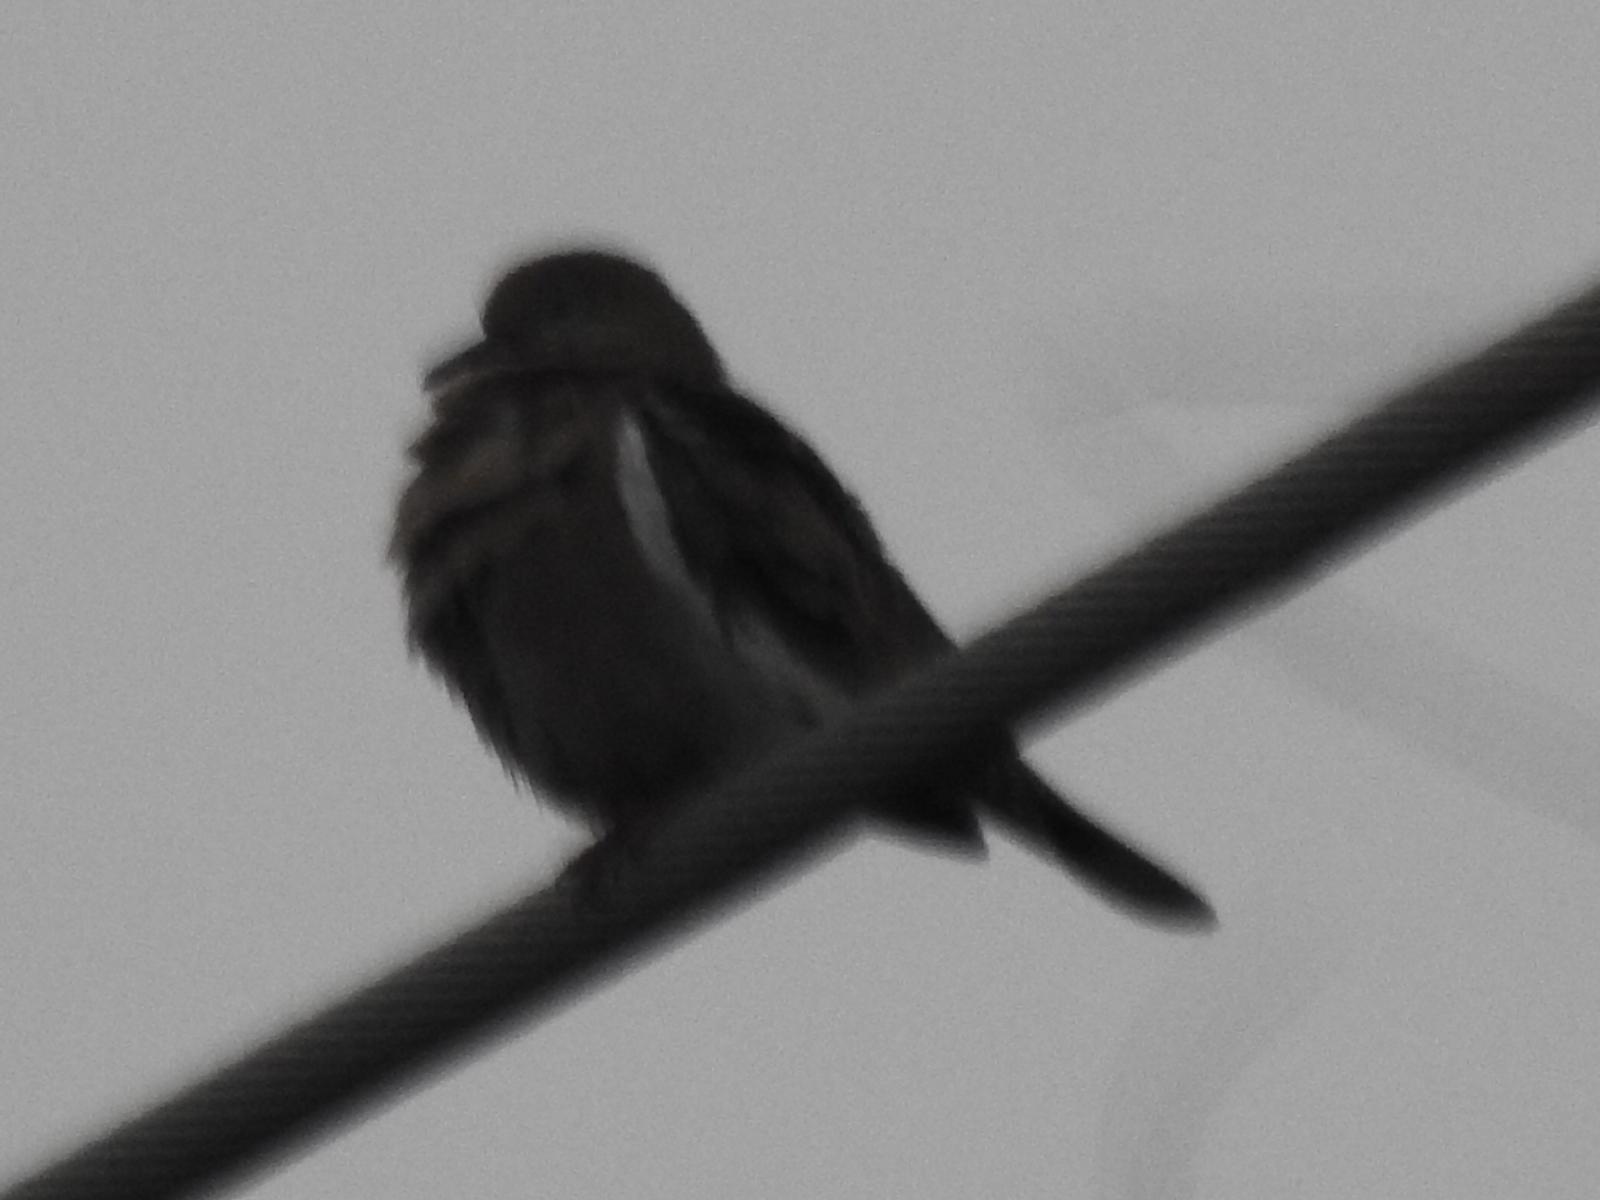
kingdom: Animalia
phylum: Chordata
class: Aves
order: Columbiformes
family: Columbidae
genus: Zenaida
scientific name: Zenaida asiatica
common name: White-winged dove
